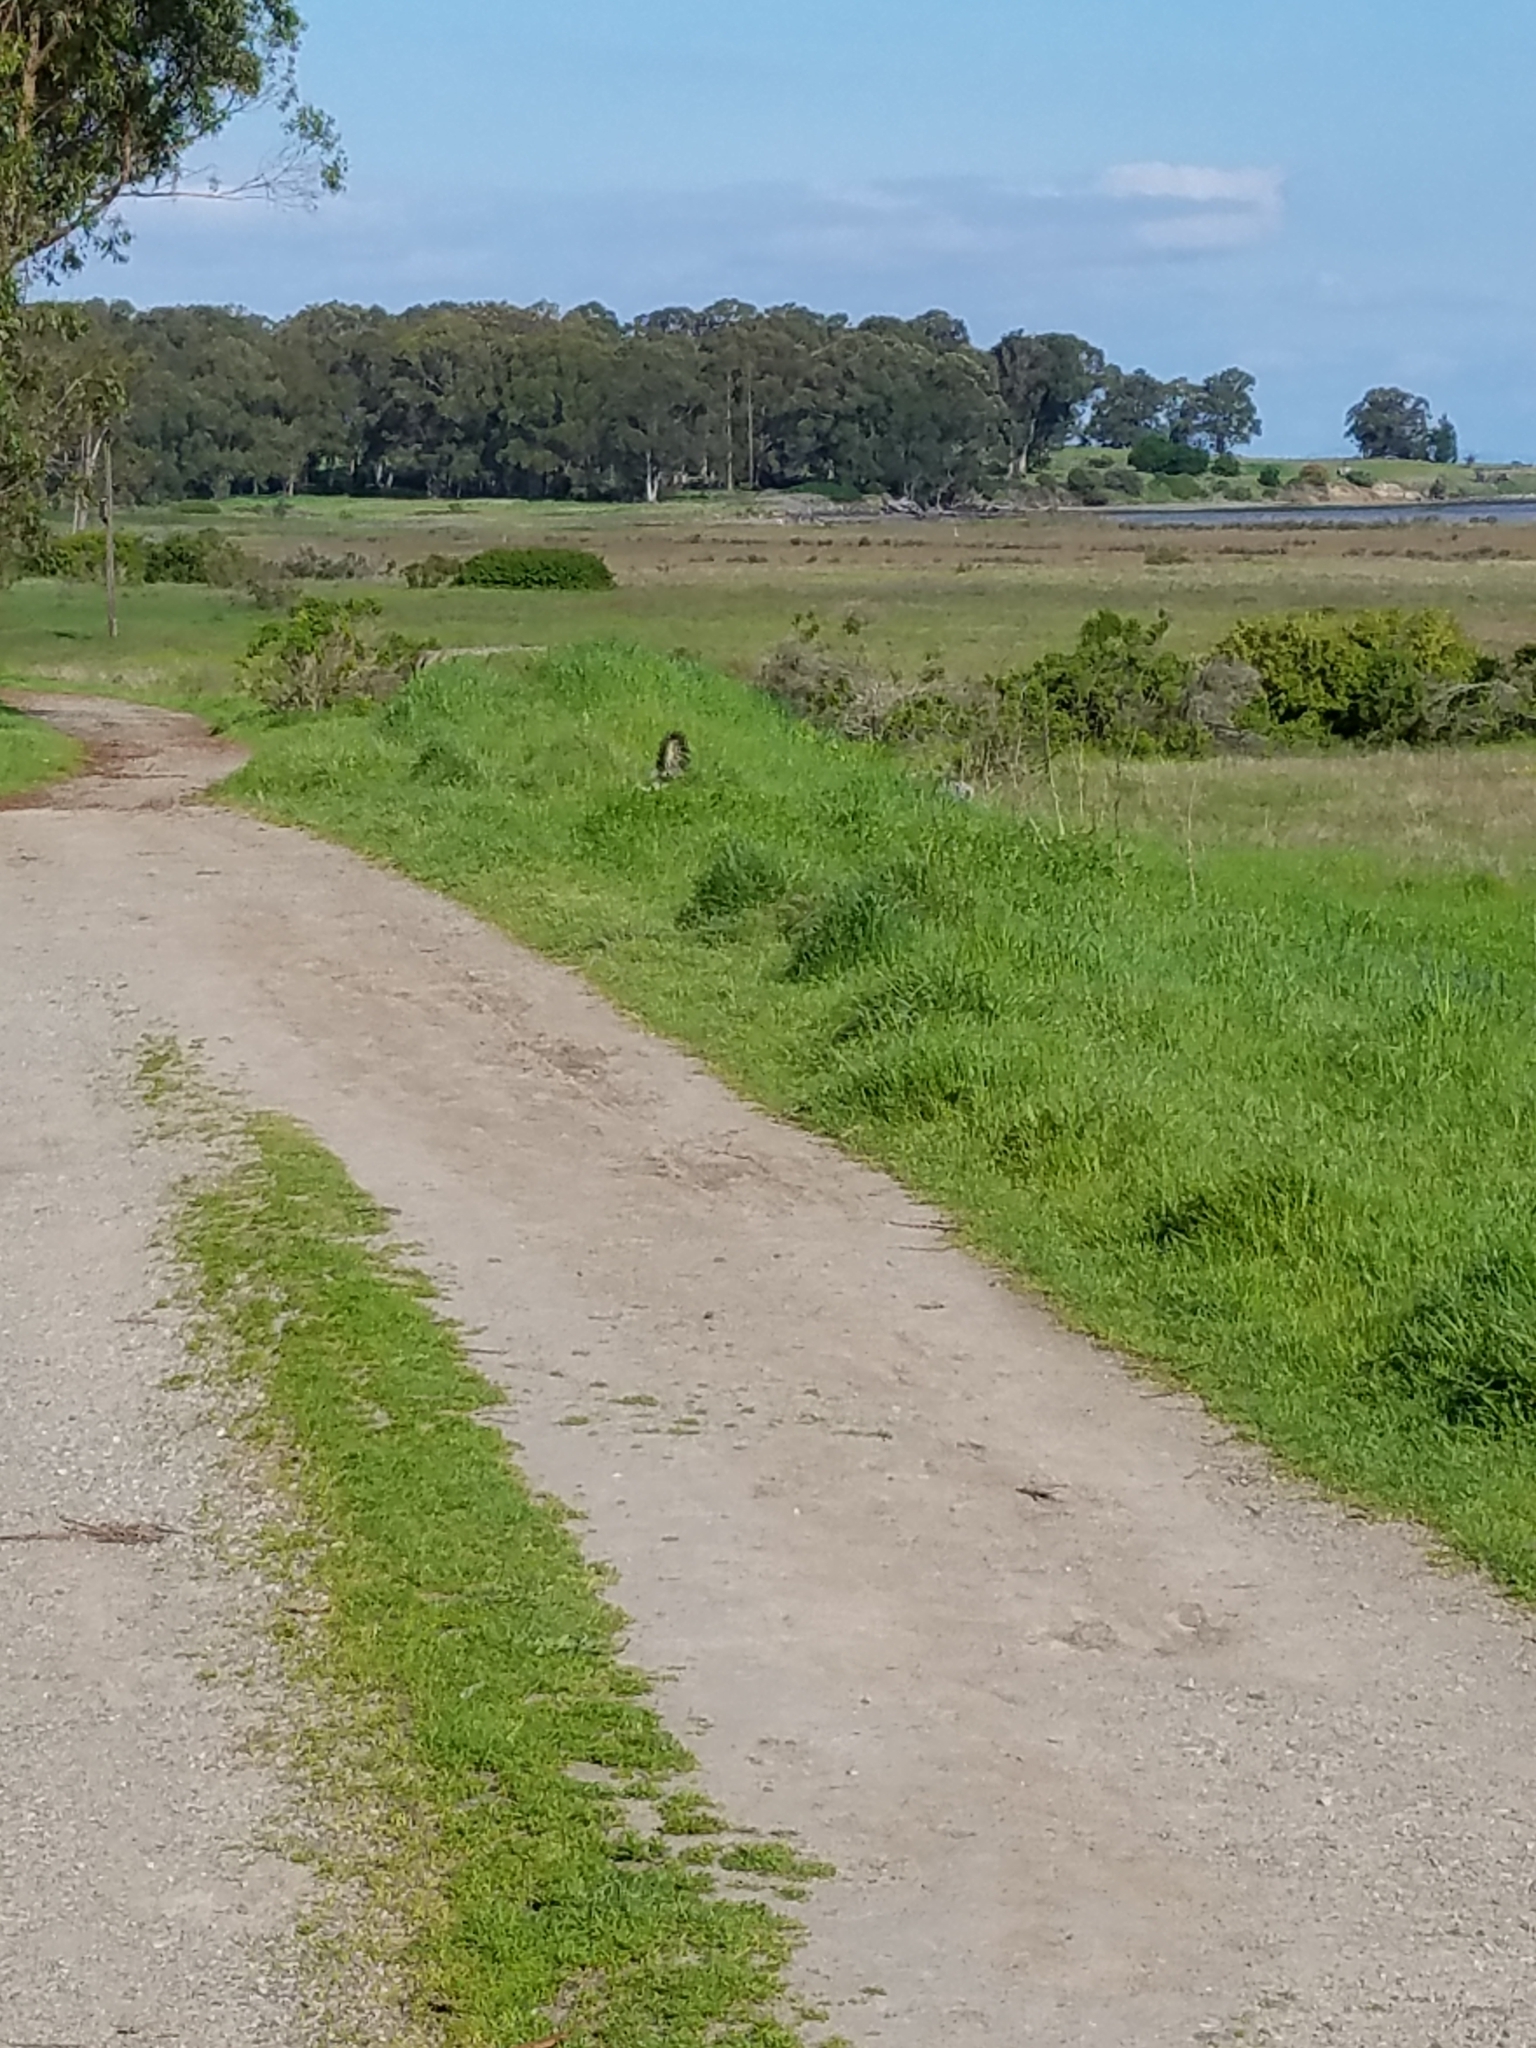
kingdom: Animalia
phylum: Chordata
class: Mammalia
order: Carnivora
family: Mephitidae
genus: Mephitis
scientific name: Mephitis mephitis
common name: Striped skunk
